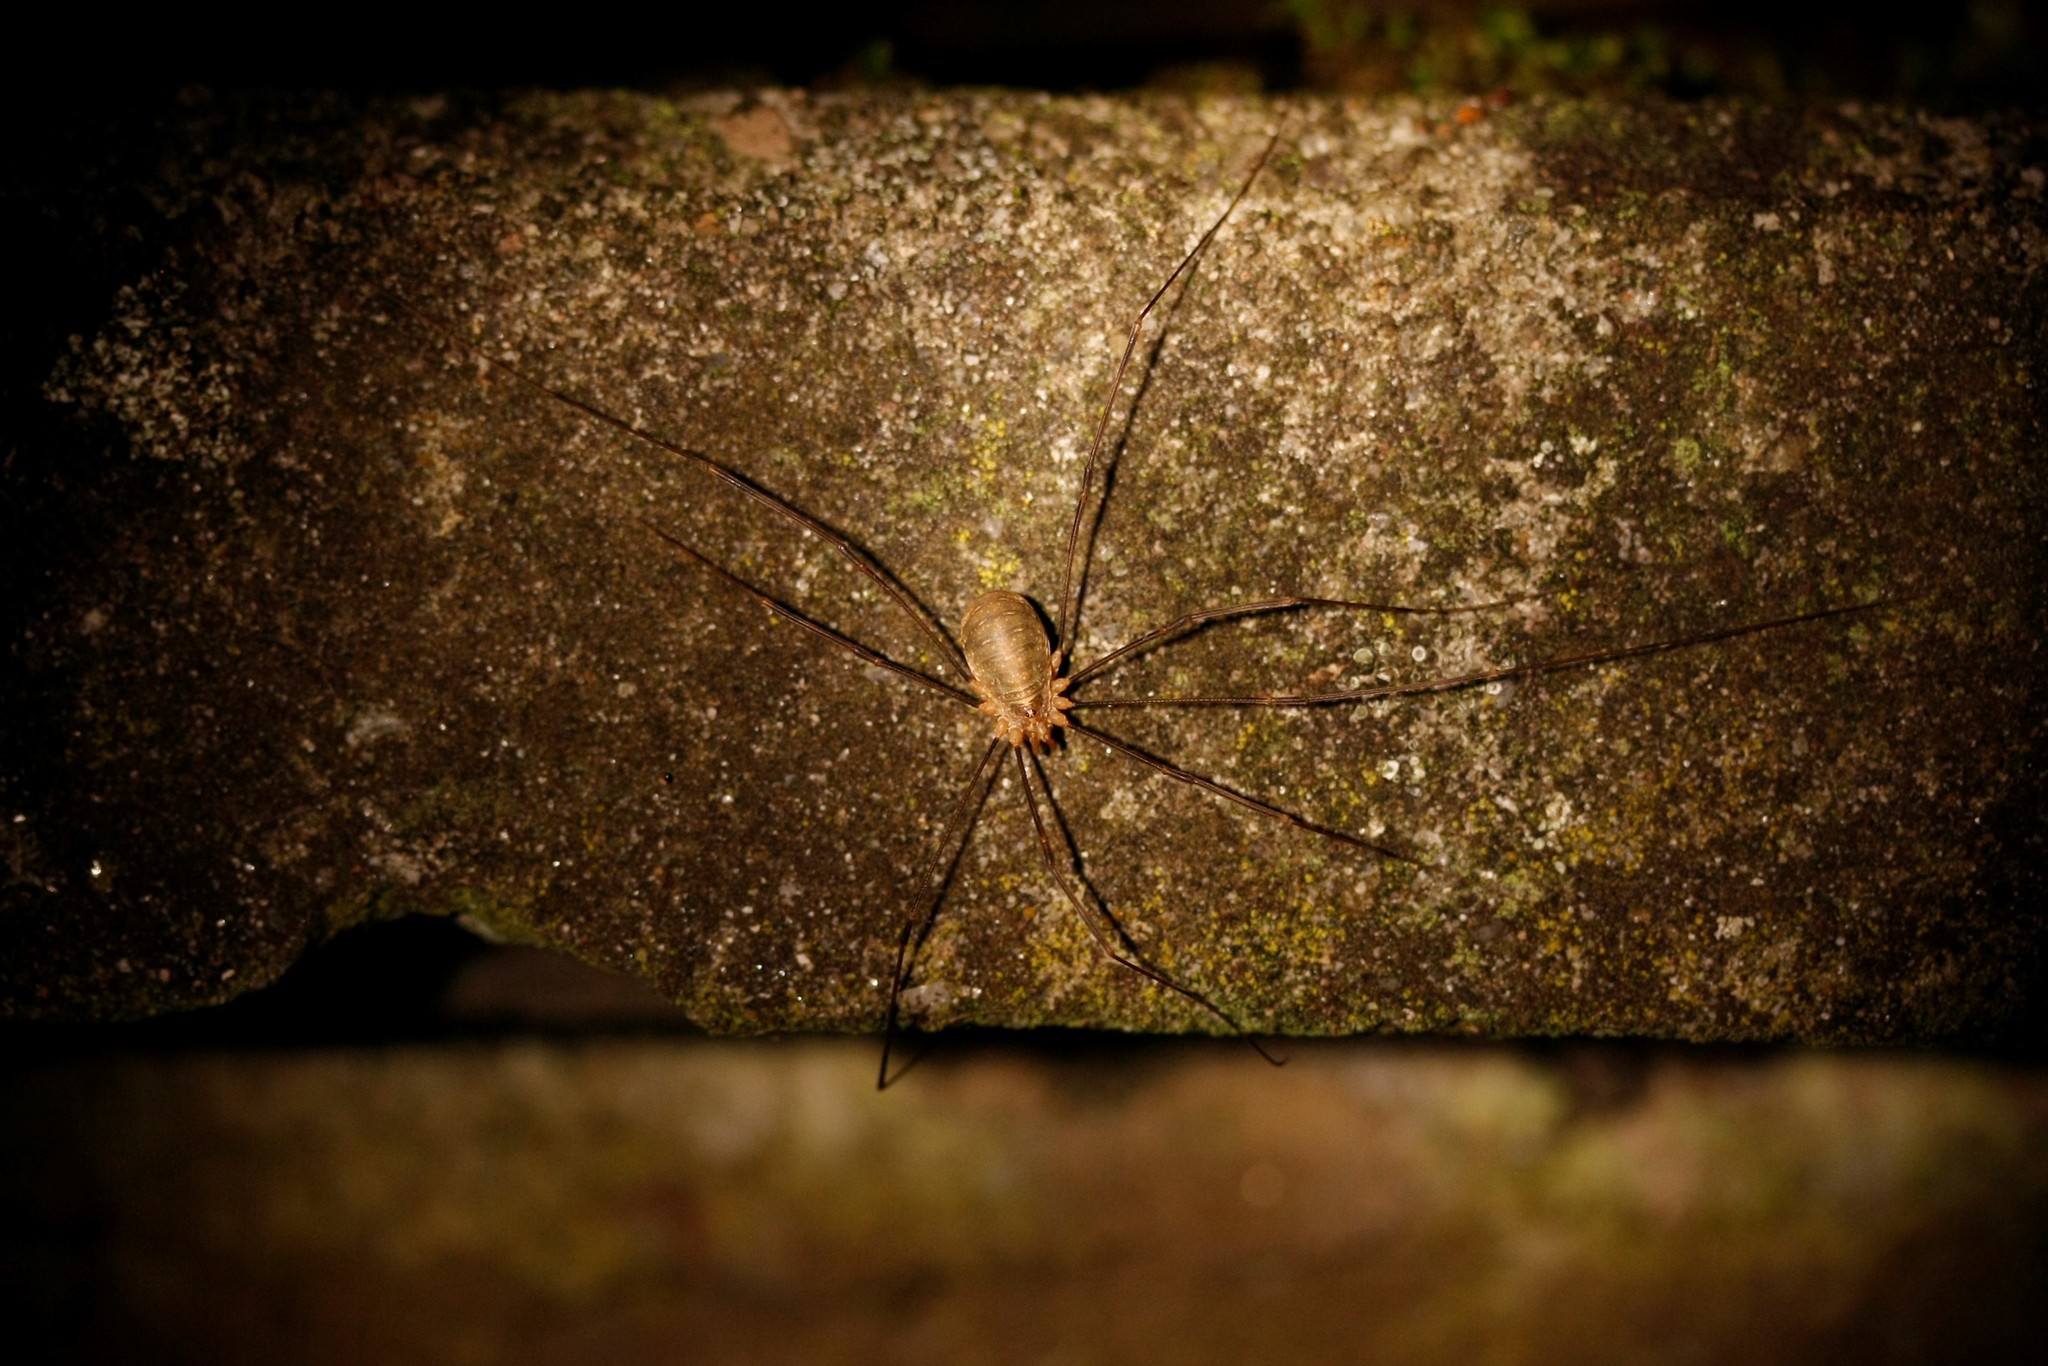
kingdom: Animalia
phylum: Arthropoda
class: Arachnida
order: Opiliones
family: Phalangiidae
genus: Opilio
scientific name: Opilio canestrinii
